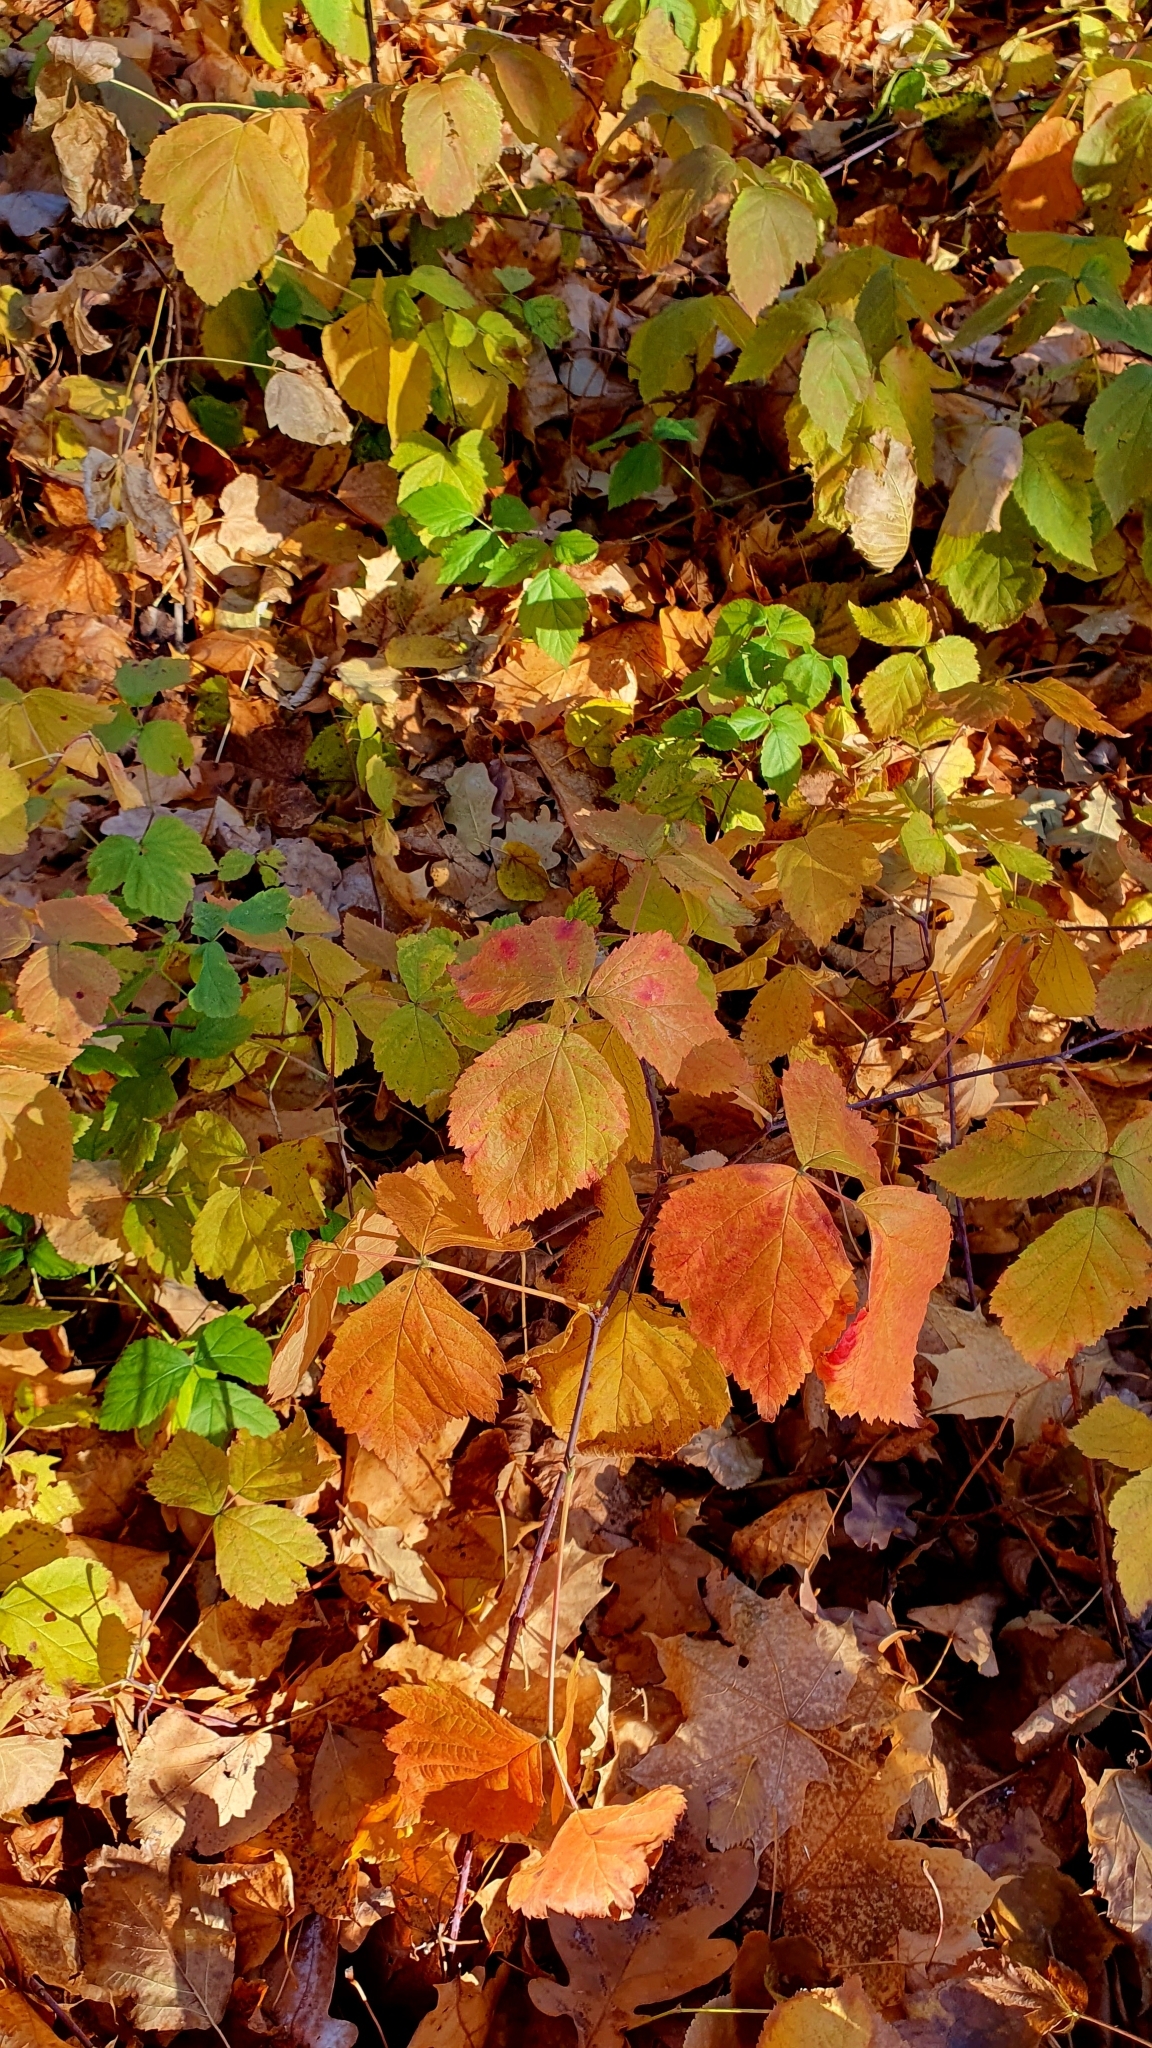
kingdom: Plantae
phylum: Tracheophyta
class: Magnoliopsida
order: Rosales
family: Rosaceae
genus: Rubus
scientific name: Rubus caesius
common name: Dewberry
